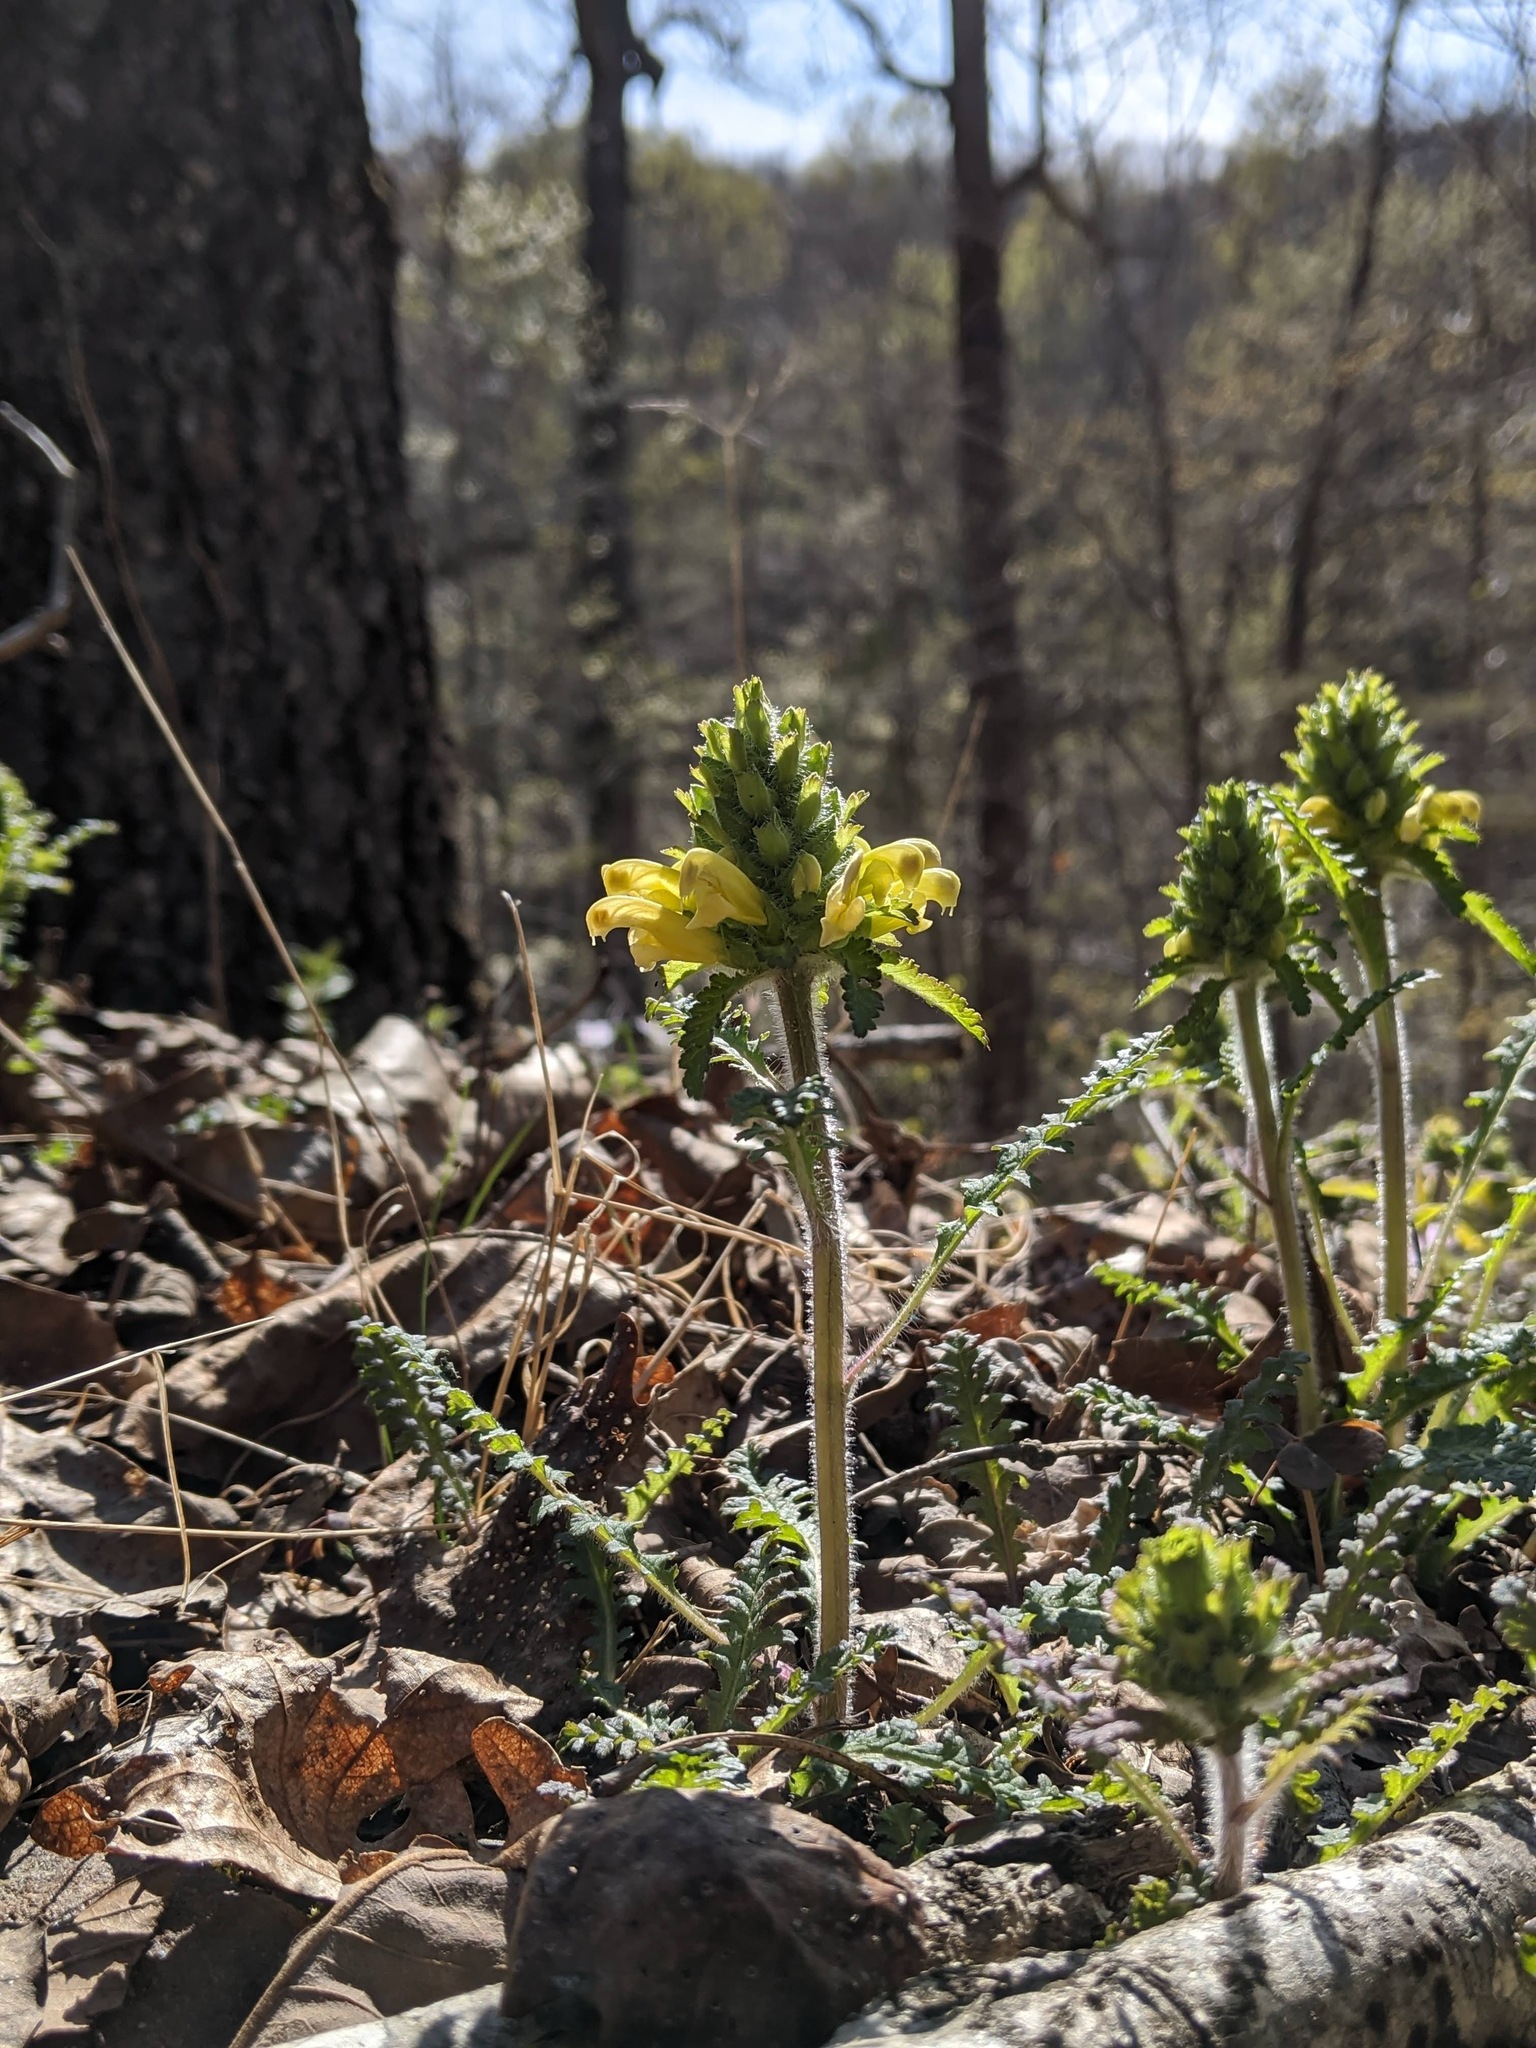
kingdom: Plantae
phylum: Tracheophyta
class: Magnoliopsida
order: Lamiales
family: Orobanchaceae
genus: Pedicularis
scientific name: Pedicularis canadensis
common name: Early lousewort
